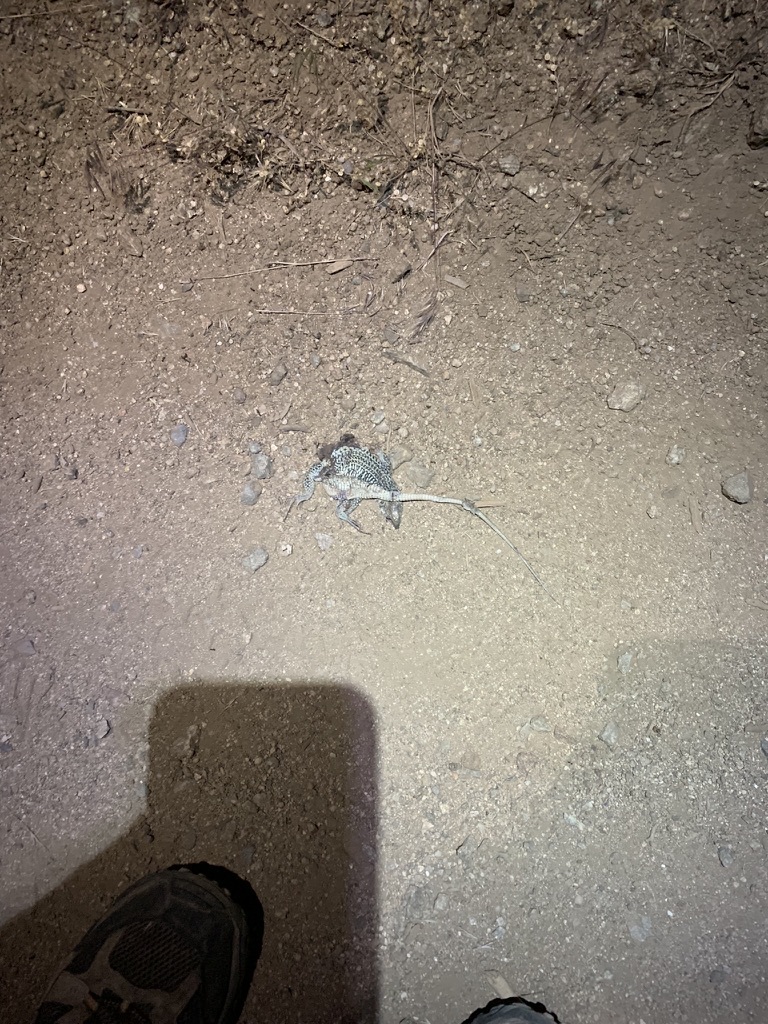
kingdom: Animalia
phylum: Chordata
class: Squamata
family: Teiidae
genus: Aspidoscelis
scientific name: Aspidoscelis tigris
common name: Tiger whiptail
